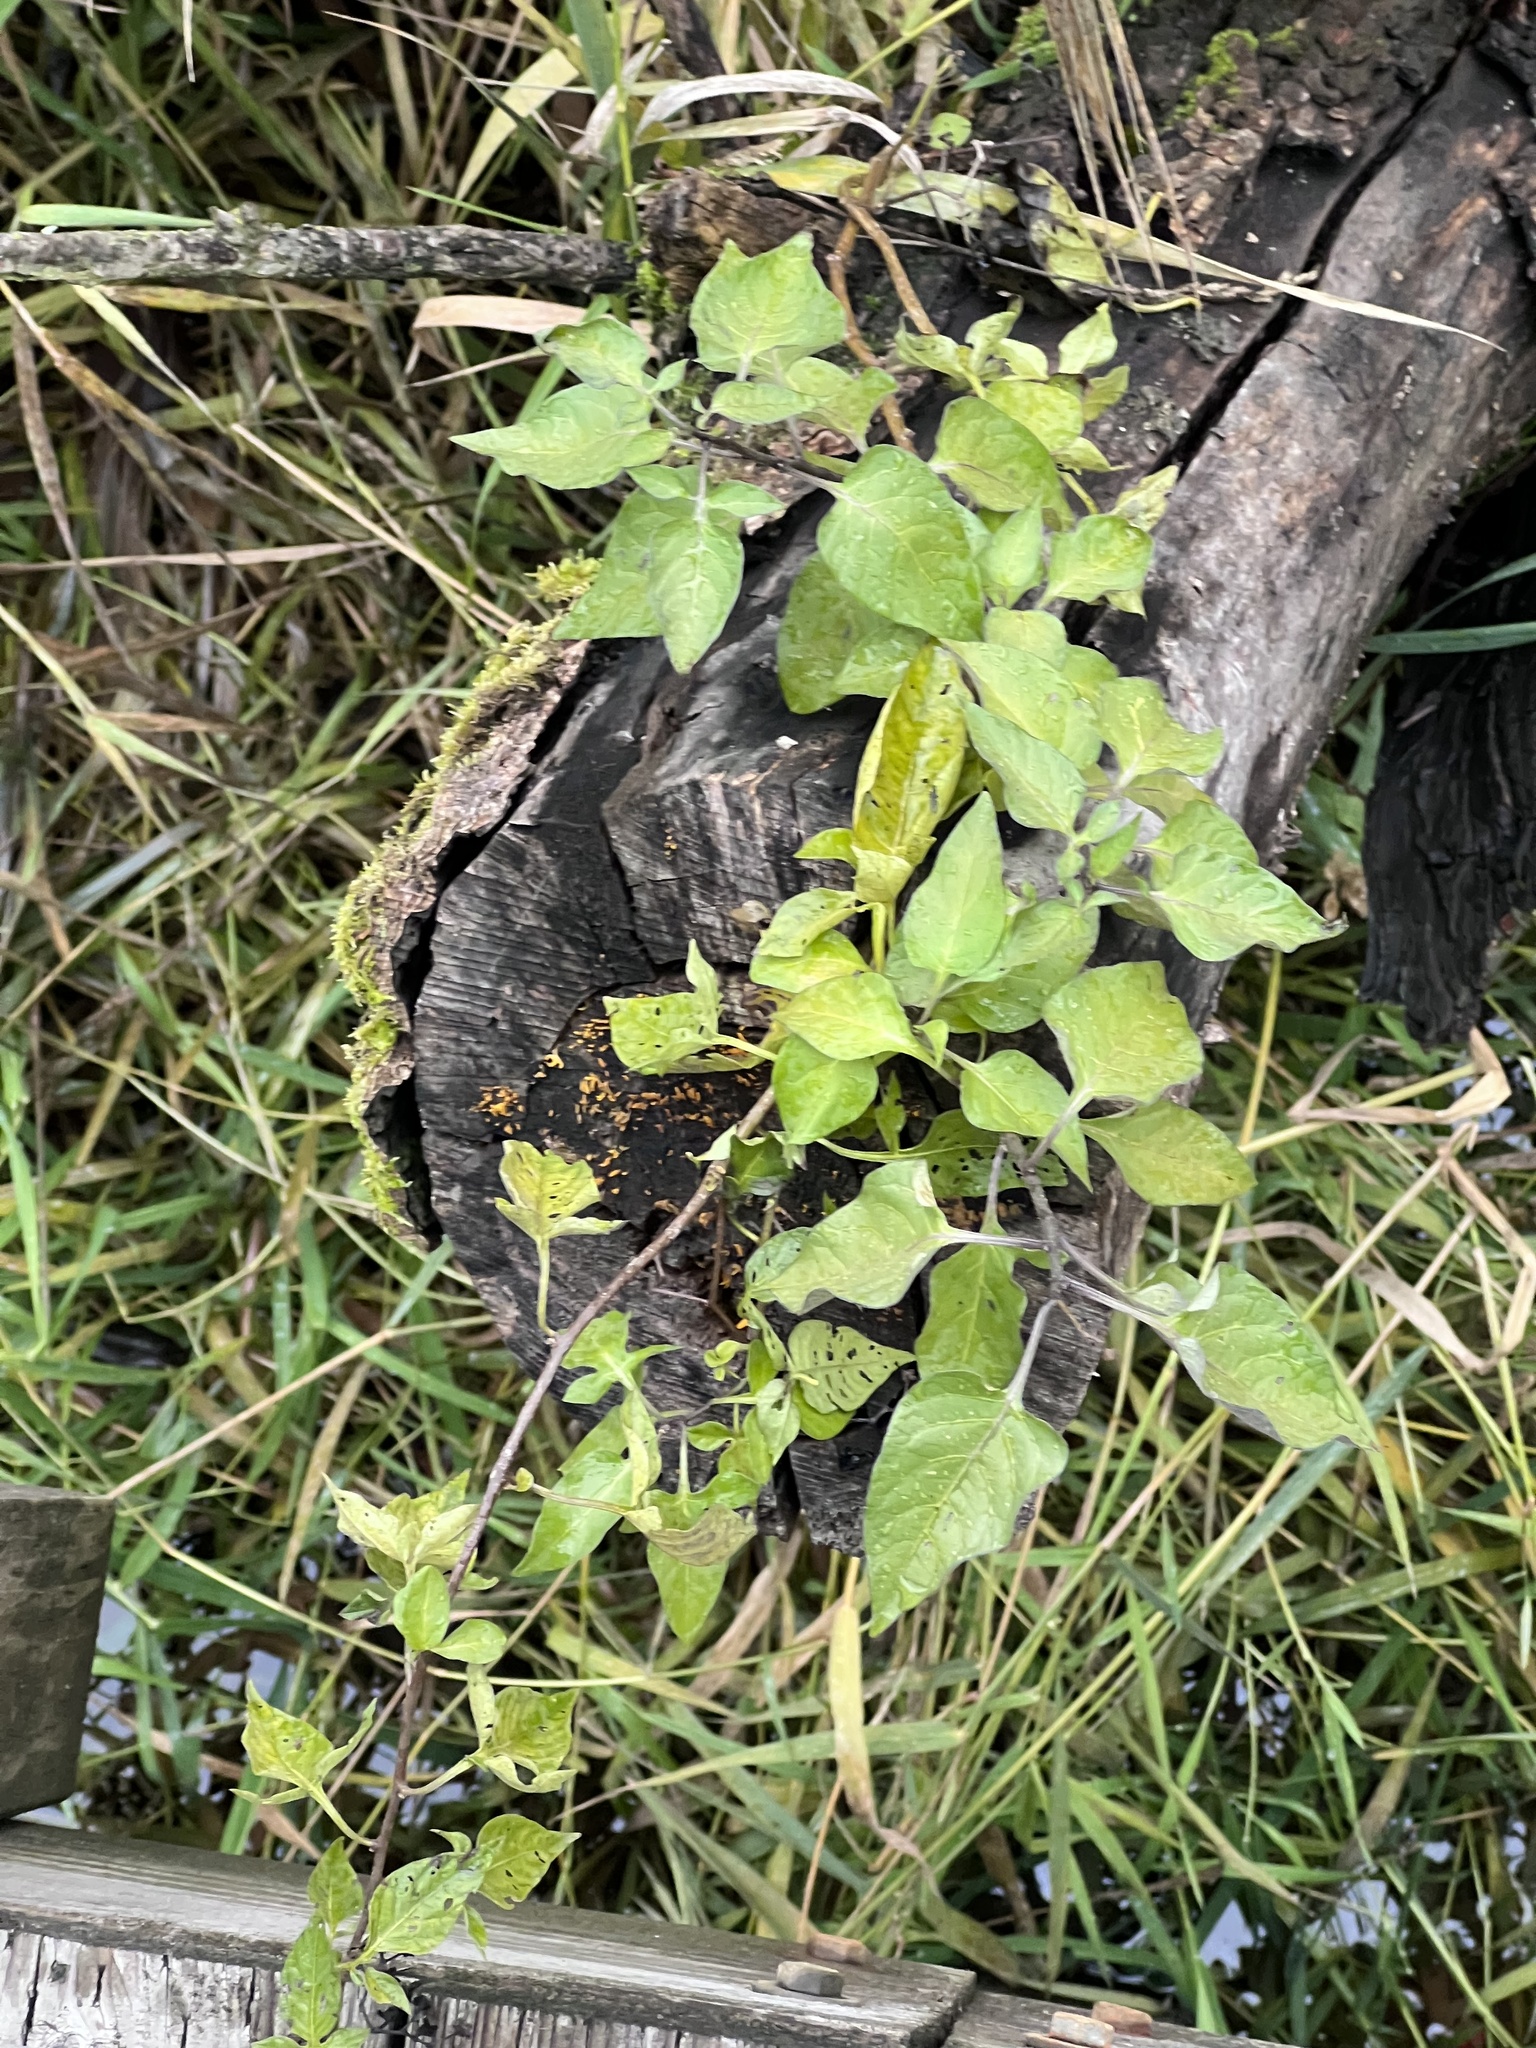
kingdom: Plantae
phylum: Tracheophyta
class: Magnoliopsida
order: Solanales
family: Solanaceae
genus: Solanum
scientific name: Solanum dulcamara
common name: Climbing nightshade
